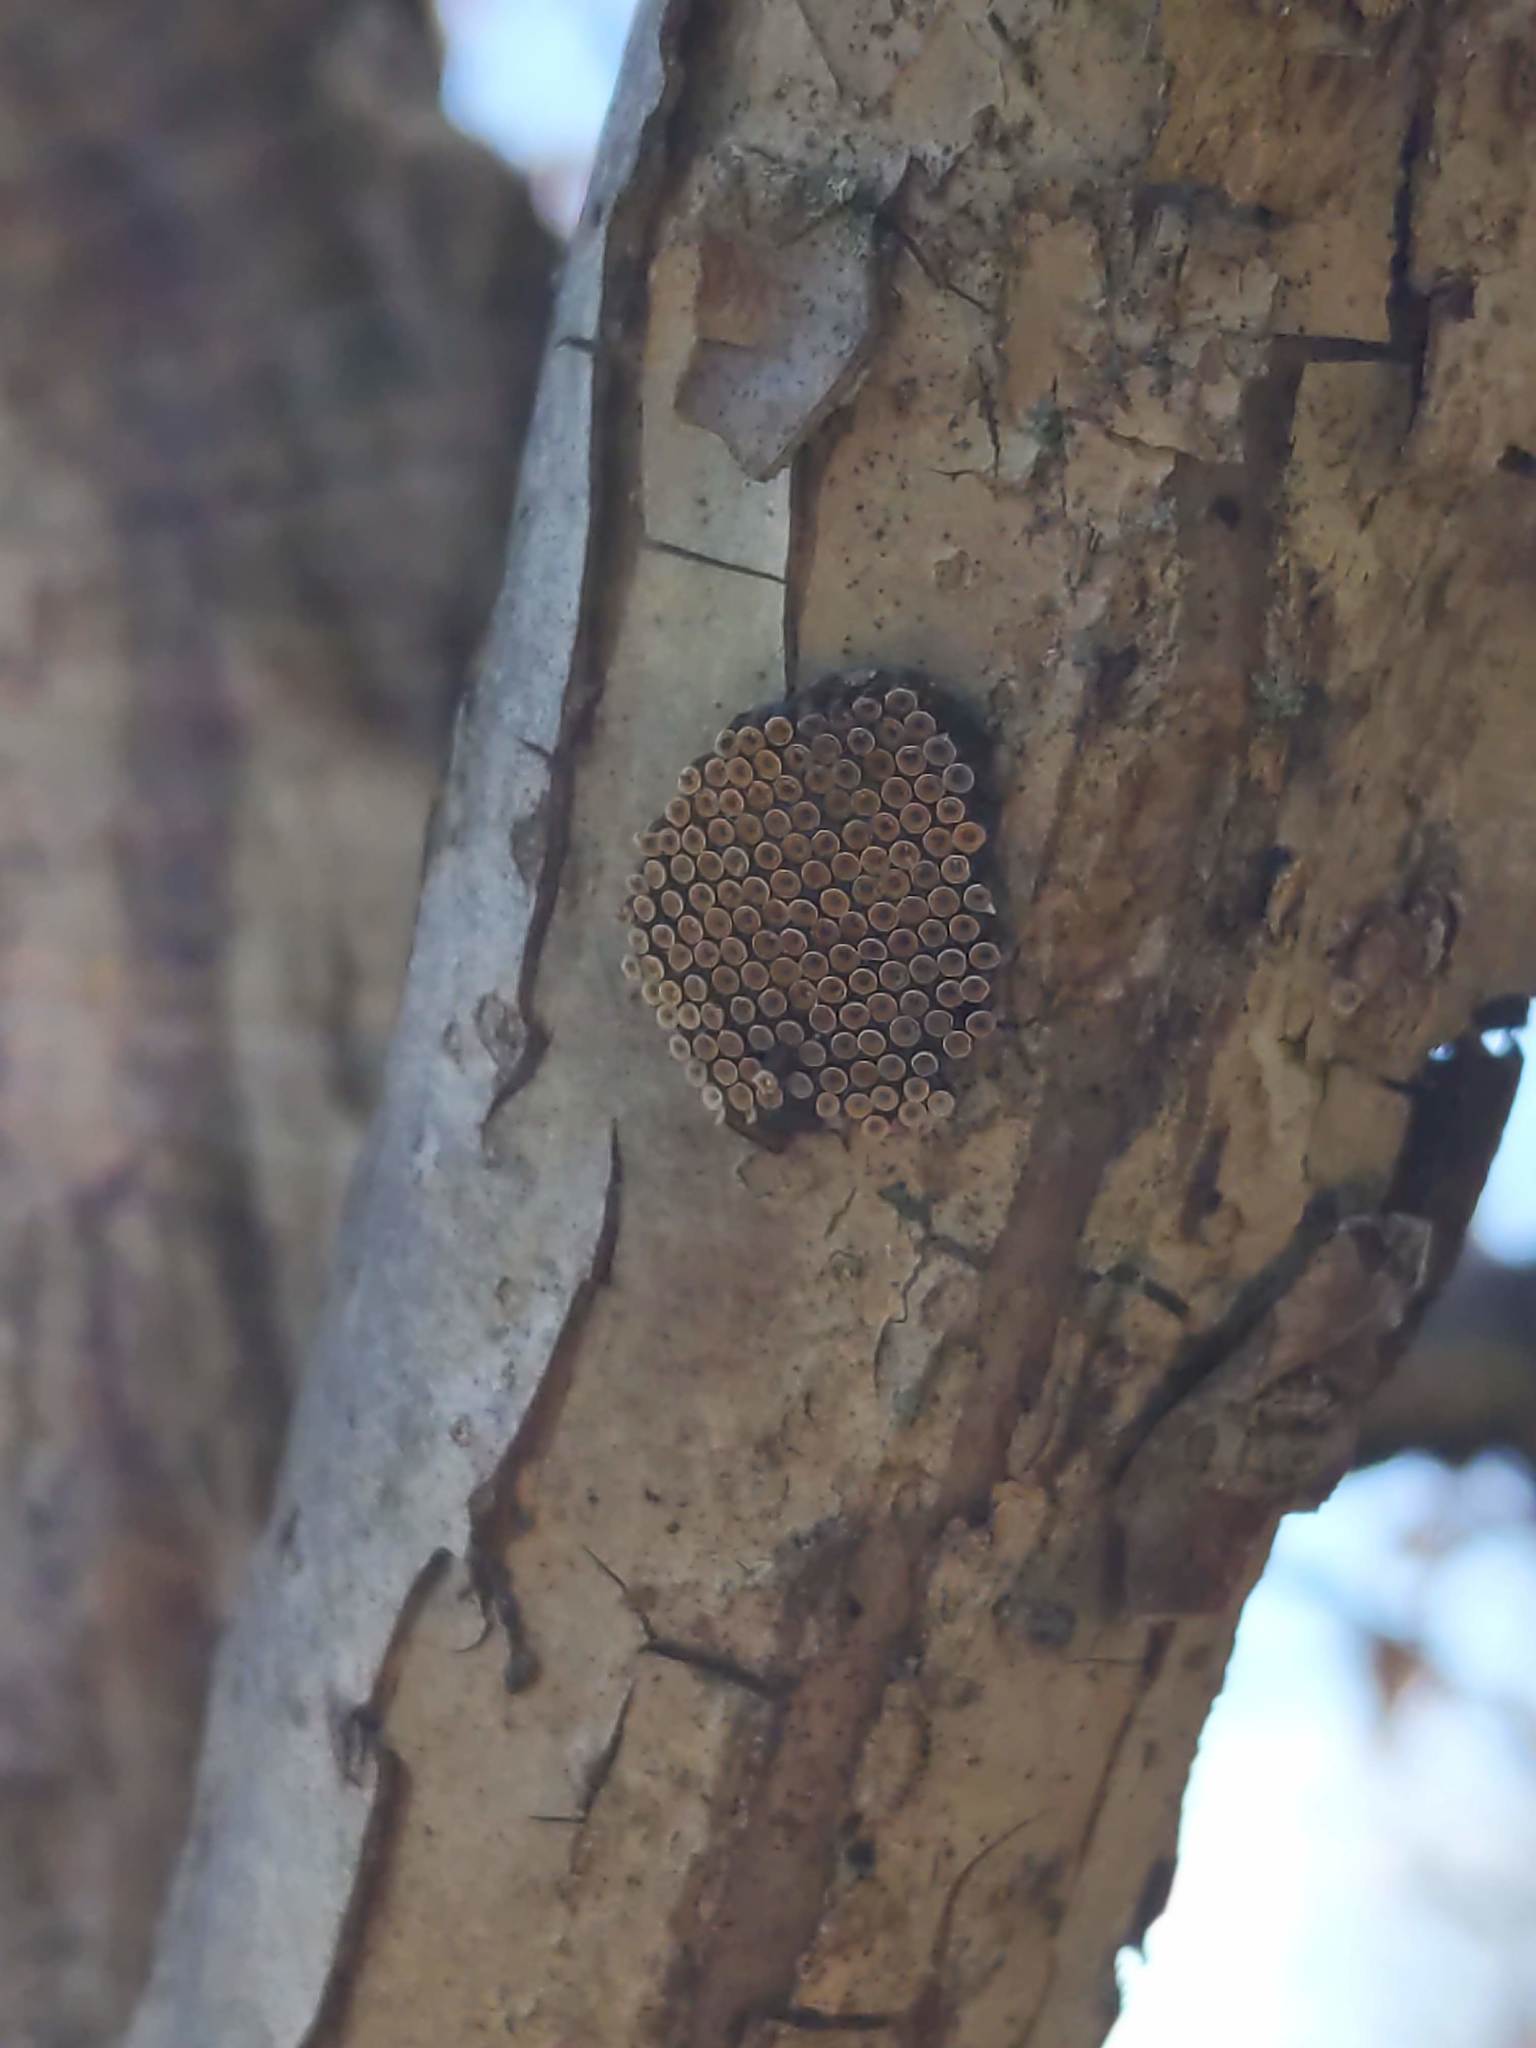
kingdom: Animalia
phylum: Arthropoda
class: Insecta
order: Hemiptera
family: Reduviidae
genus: Arilus
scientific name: Arilus cristatus
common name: North american wheel bug
